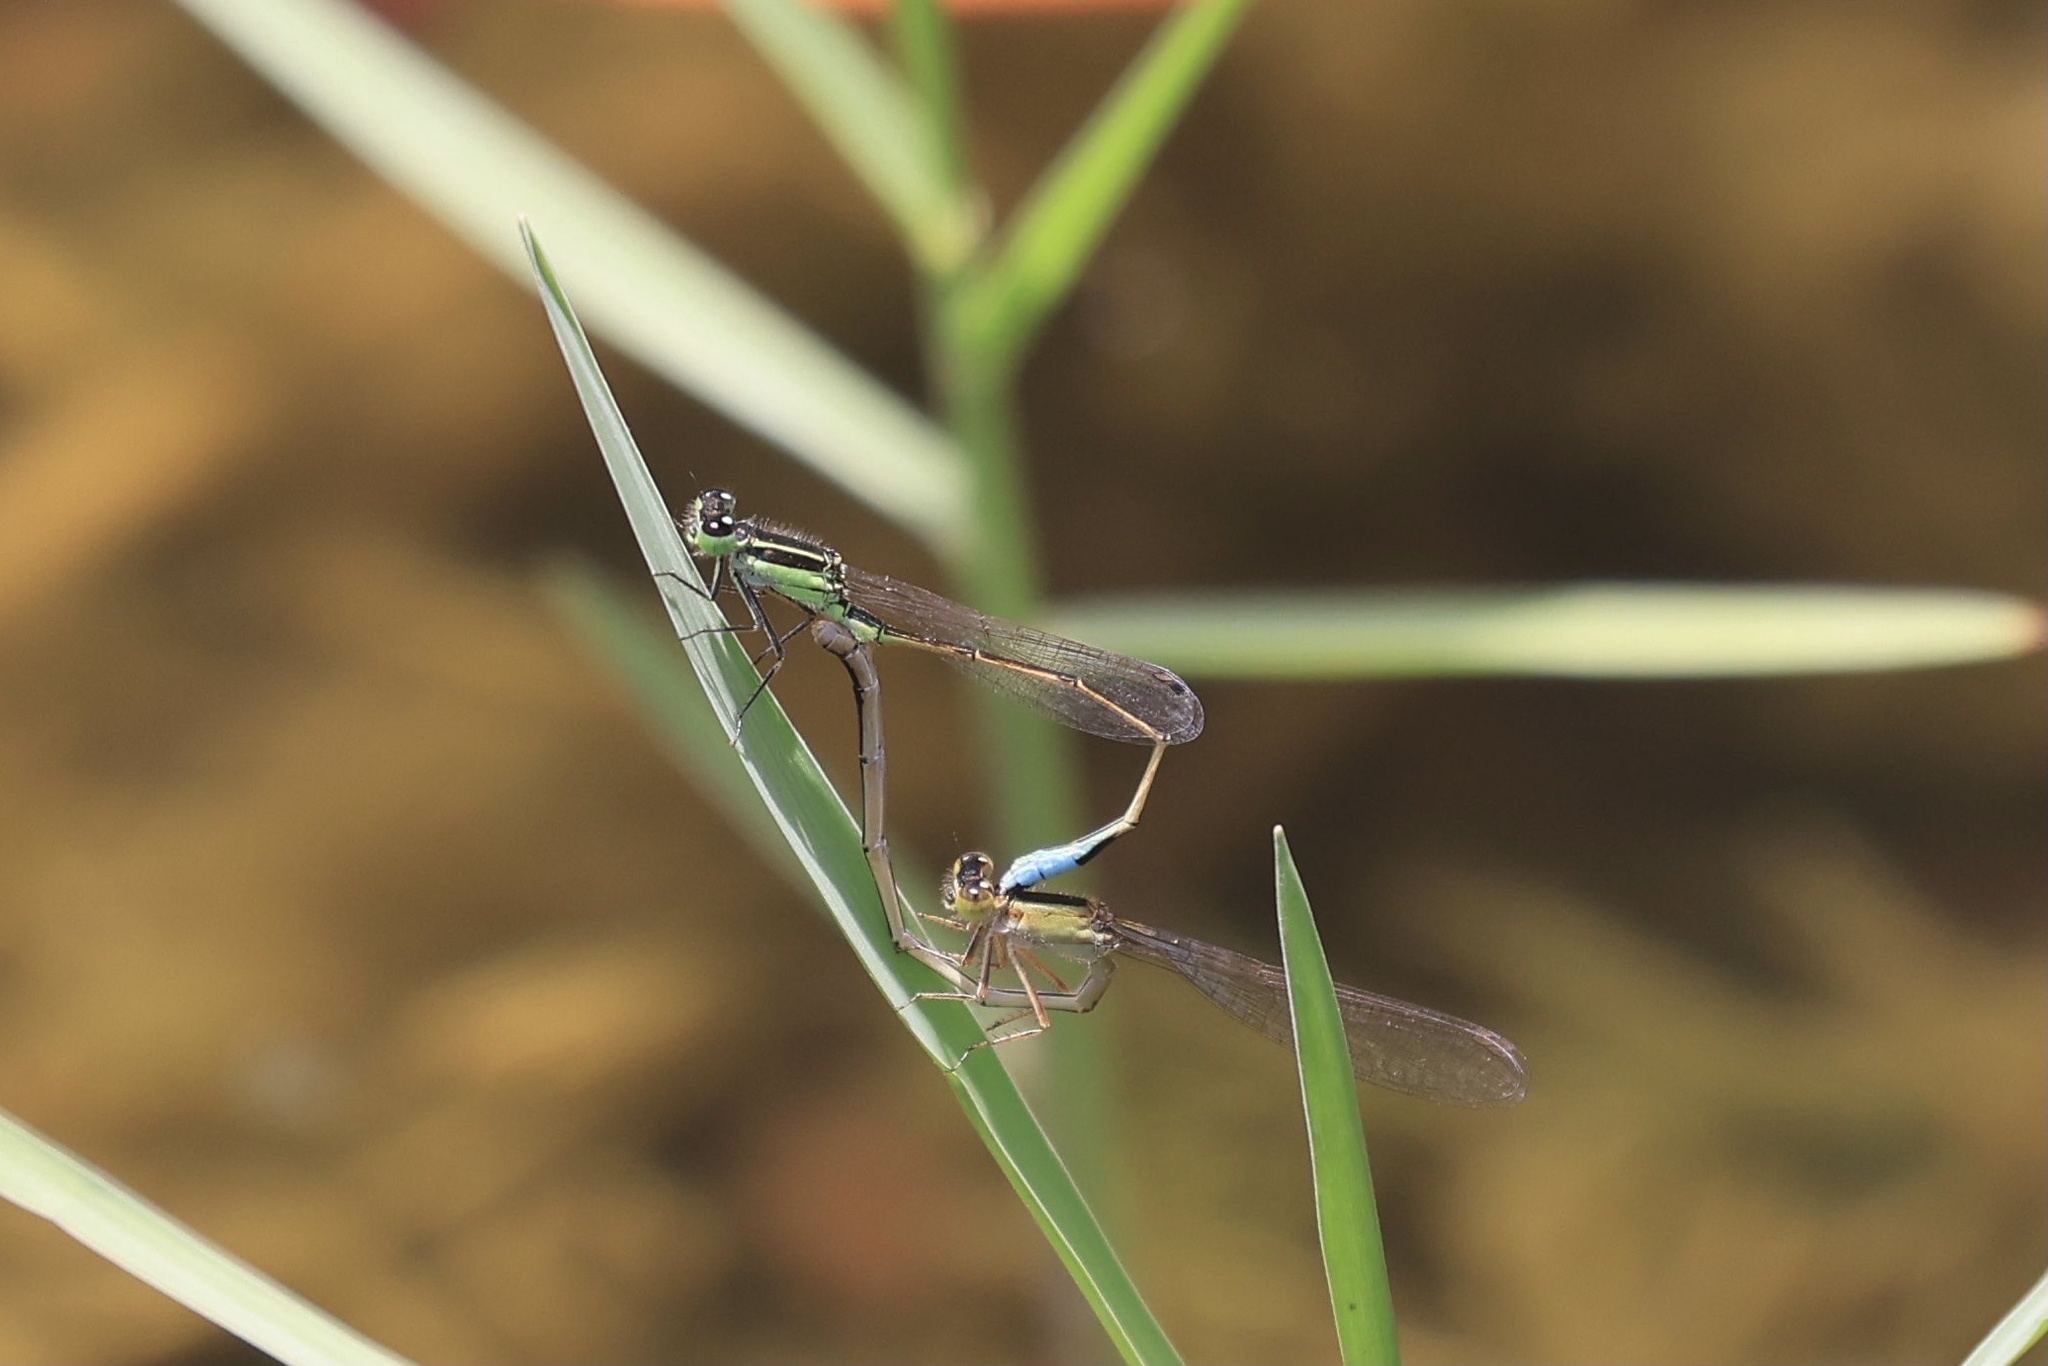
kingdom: Animalia
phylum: Arthropoda
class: Insecta
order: Odonata
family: Coenagrionidae
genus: Ischnura
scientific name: Ischnura ramburii
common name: Rambur's forktail
